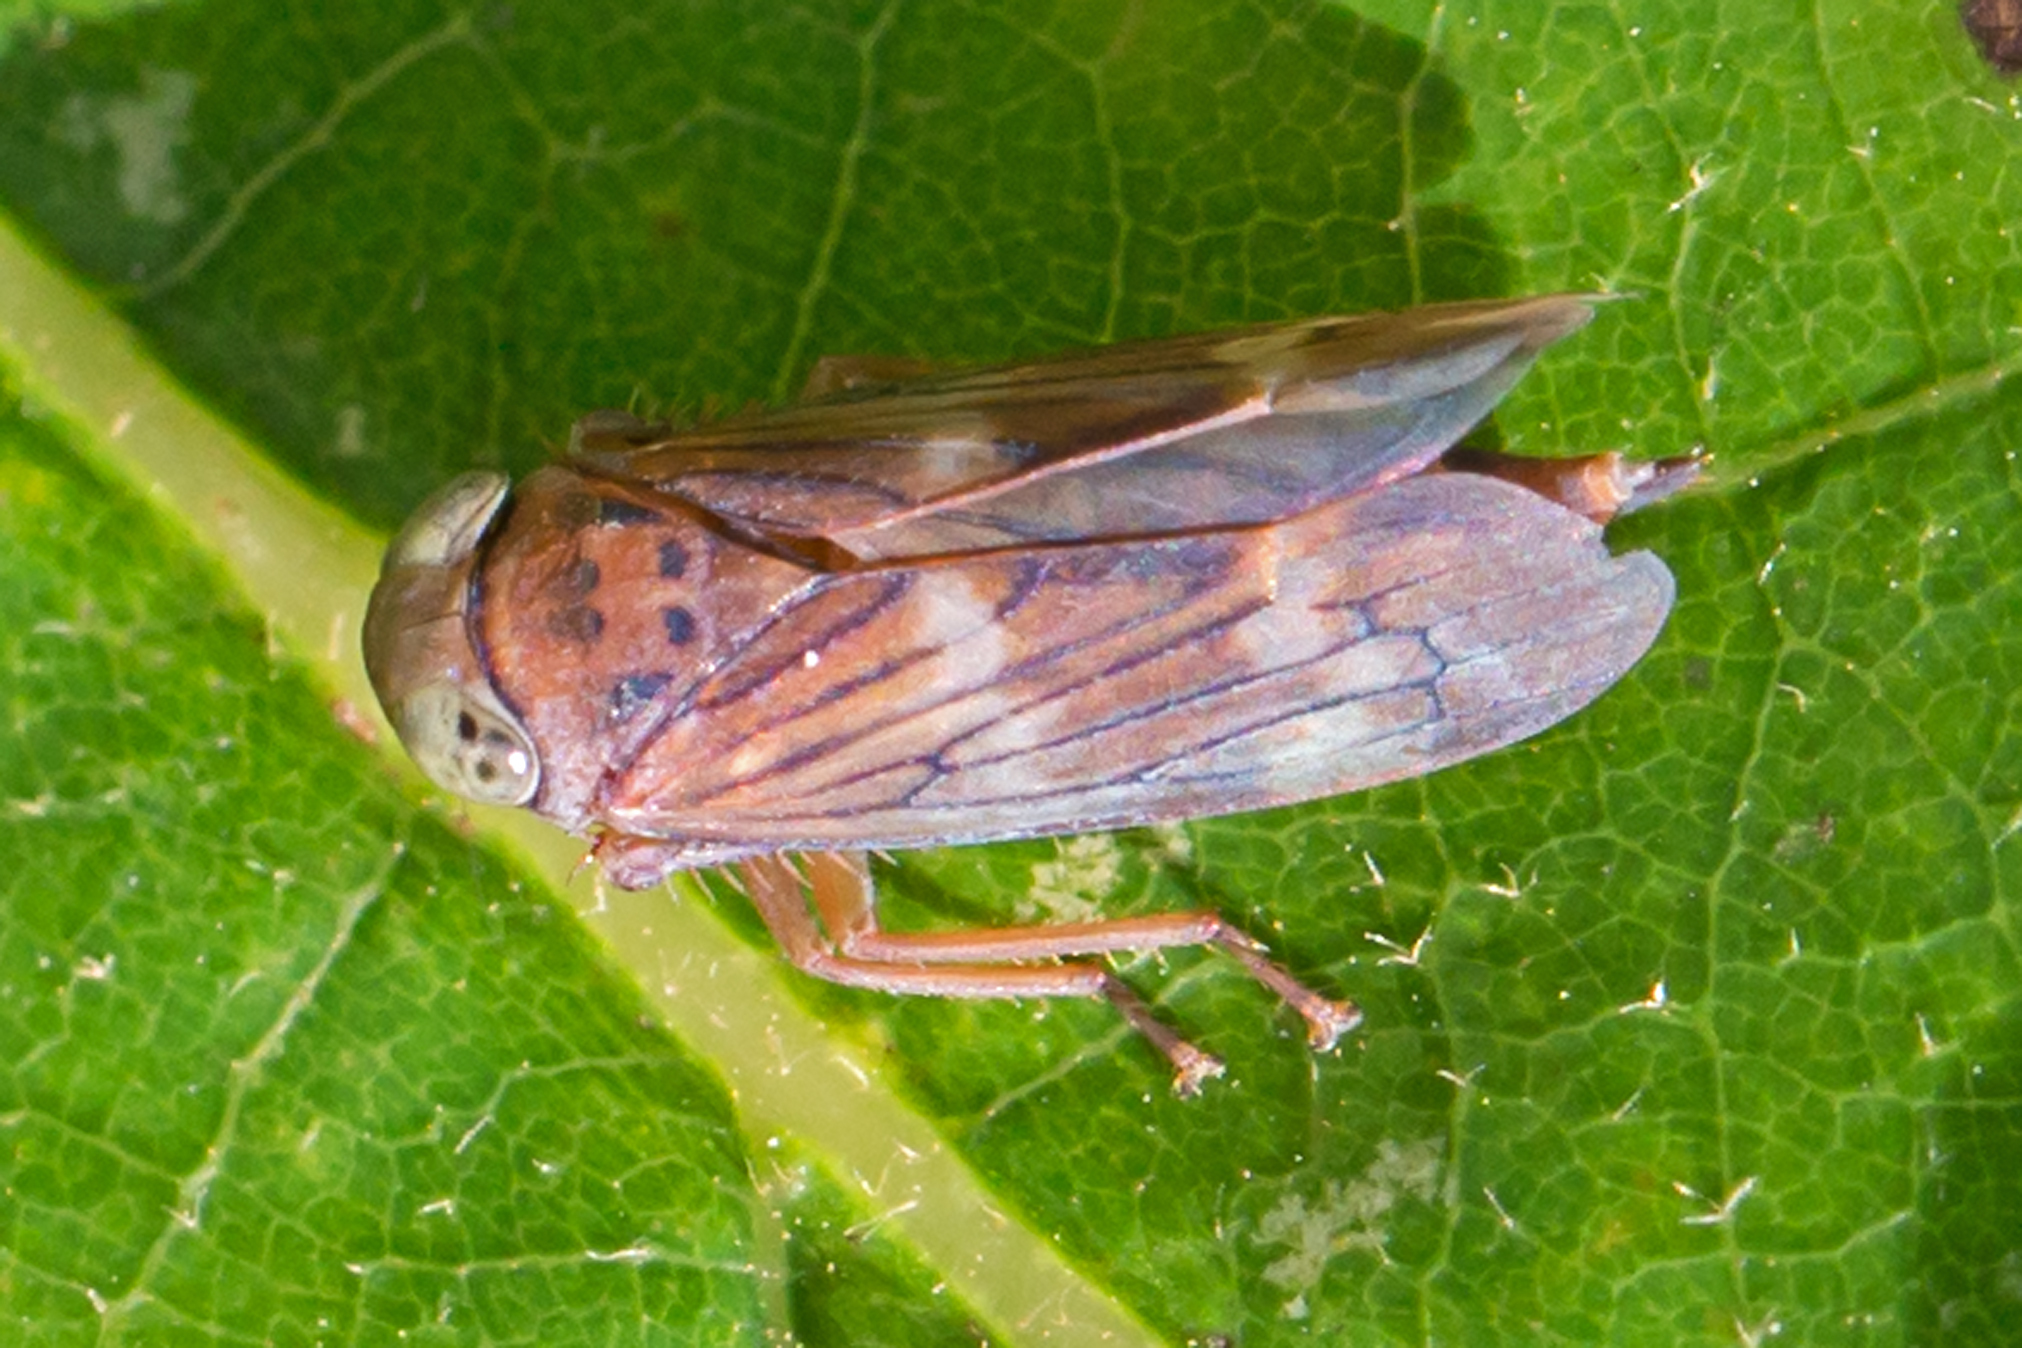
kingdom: Animalia
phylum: Arthropoda
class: Insecta
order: Hemiptera
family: Cicadellidae
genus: Jikradia
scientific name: Jikradia olitoria
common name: Coppery leafhopper
